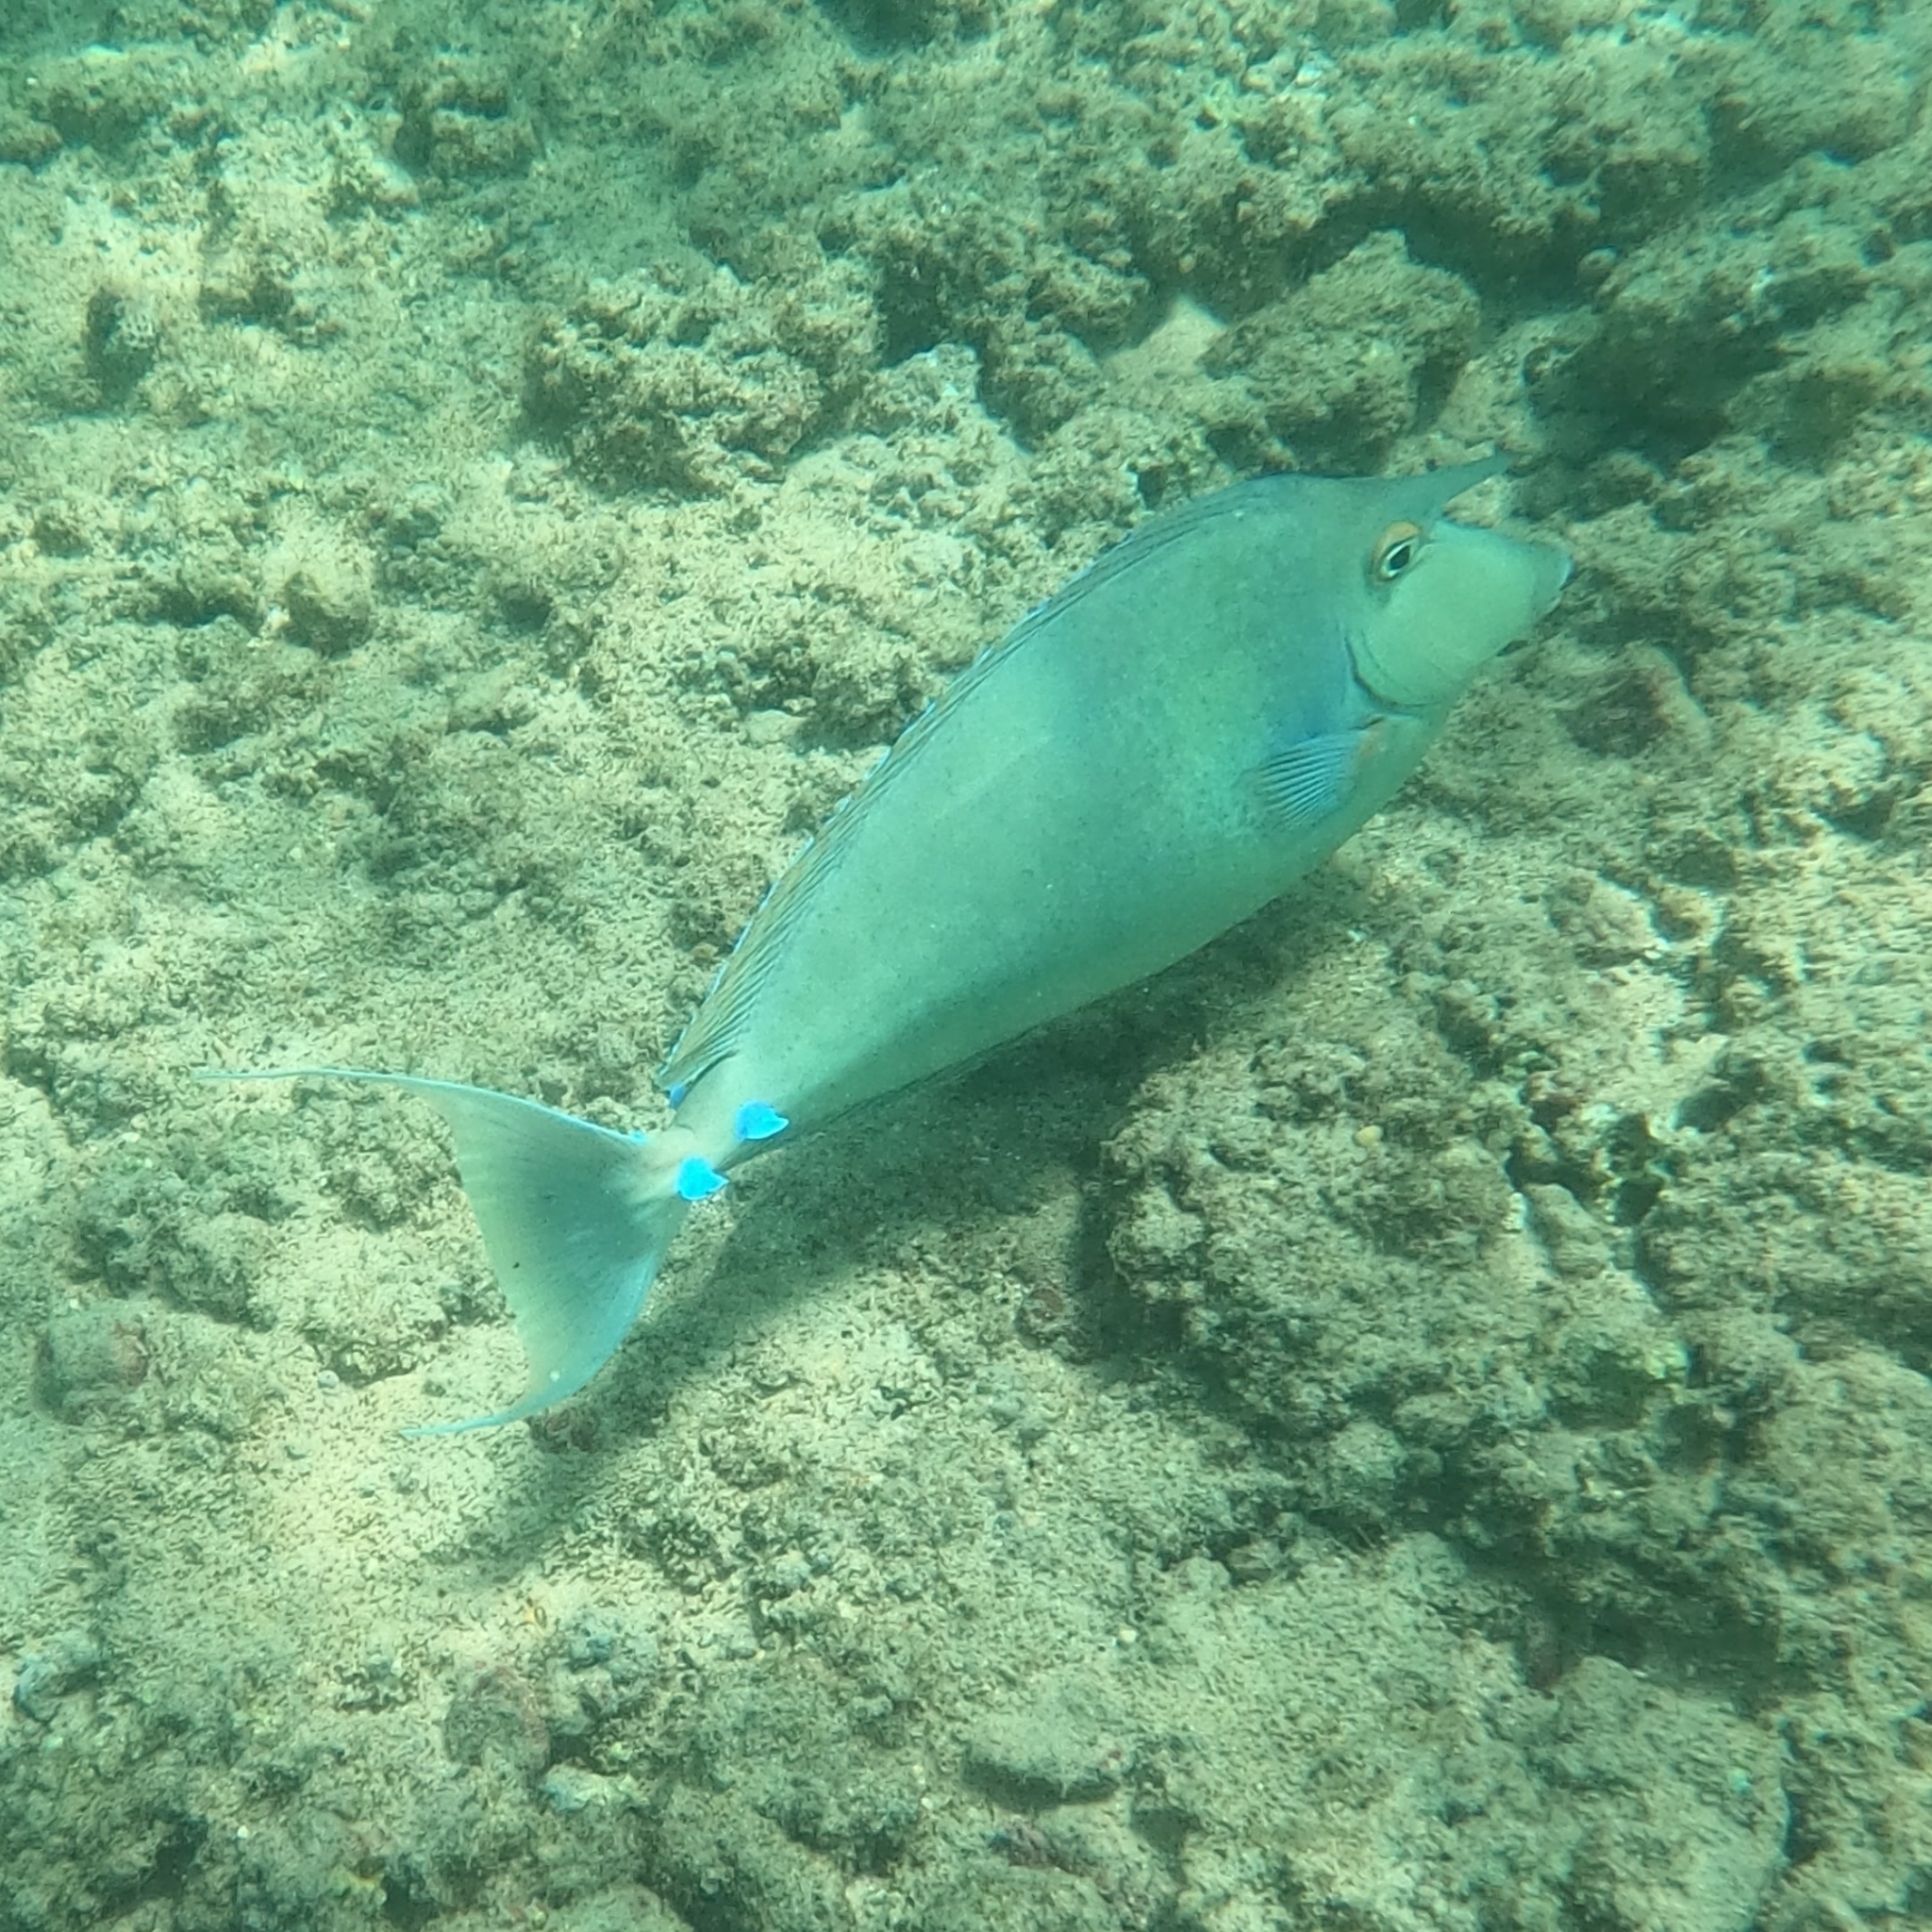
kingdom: Animalia
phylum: Chordata
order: Perciformes
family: Acanthuridae
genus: Naso
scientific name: Naso unicornis
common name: Bluespine unicornfish
